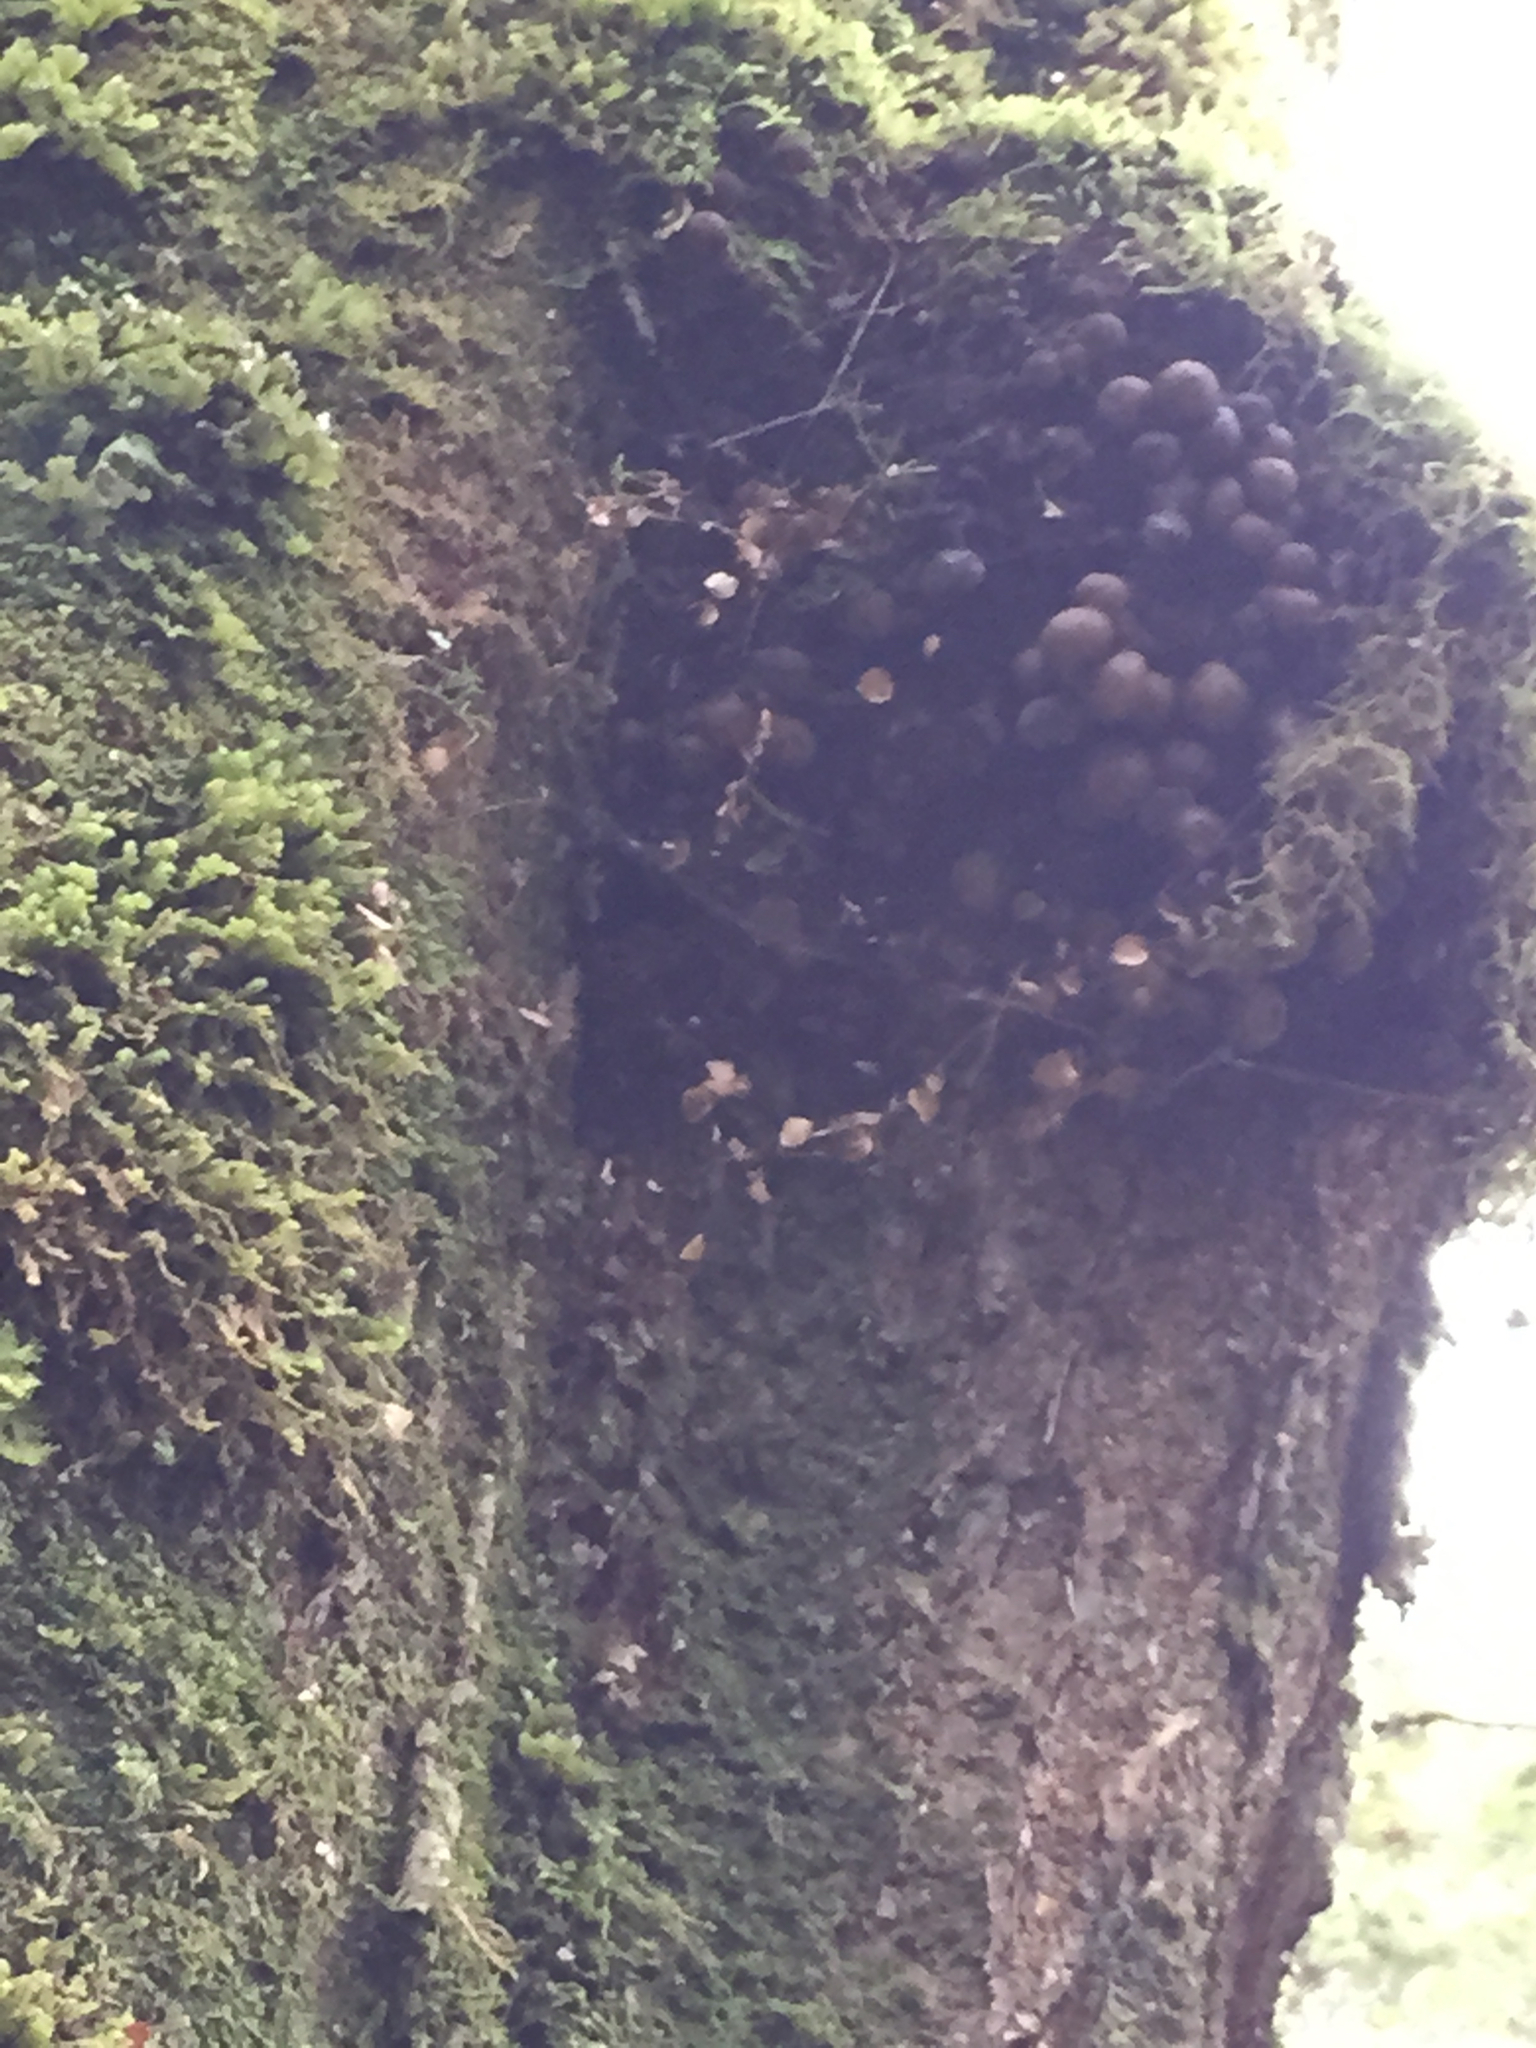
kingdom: Fungi
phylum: Ascomycota
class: Leotiomycetes
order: Cyttariales
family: Cyttariaceae
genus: Cyttaria
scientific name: Cyttaria gunnii
